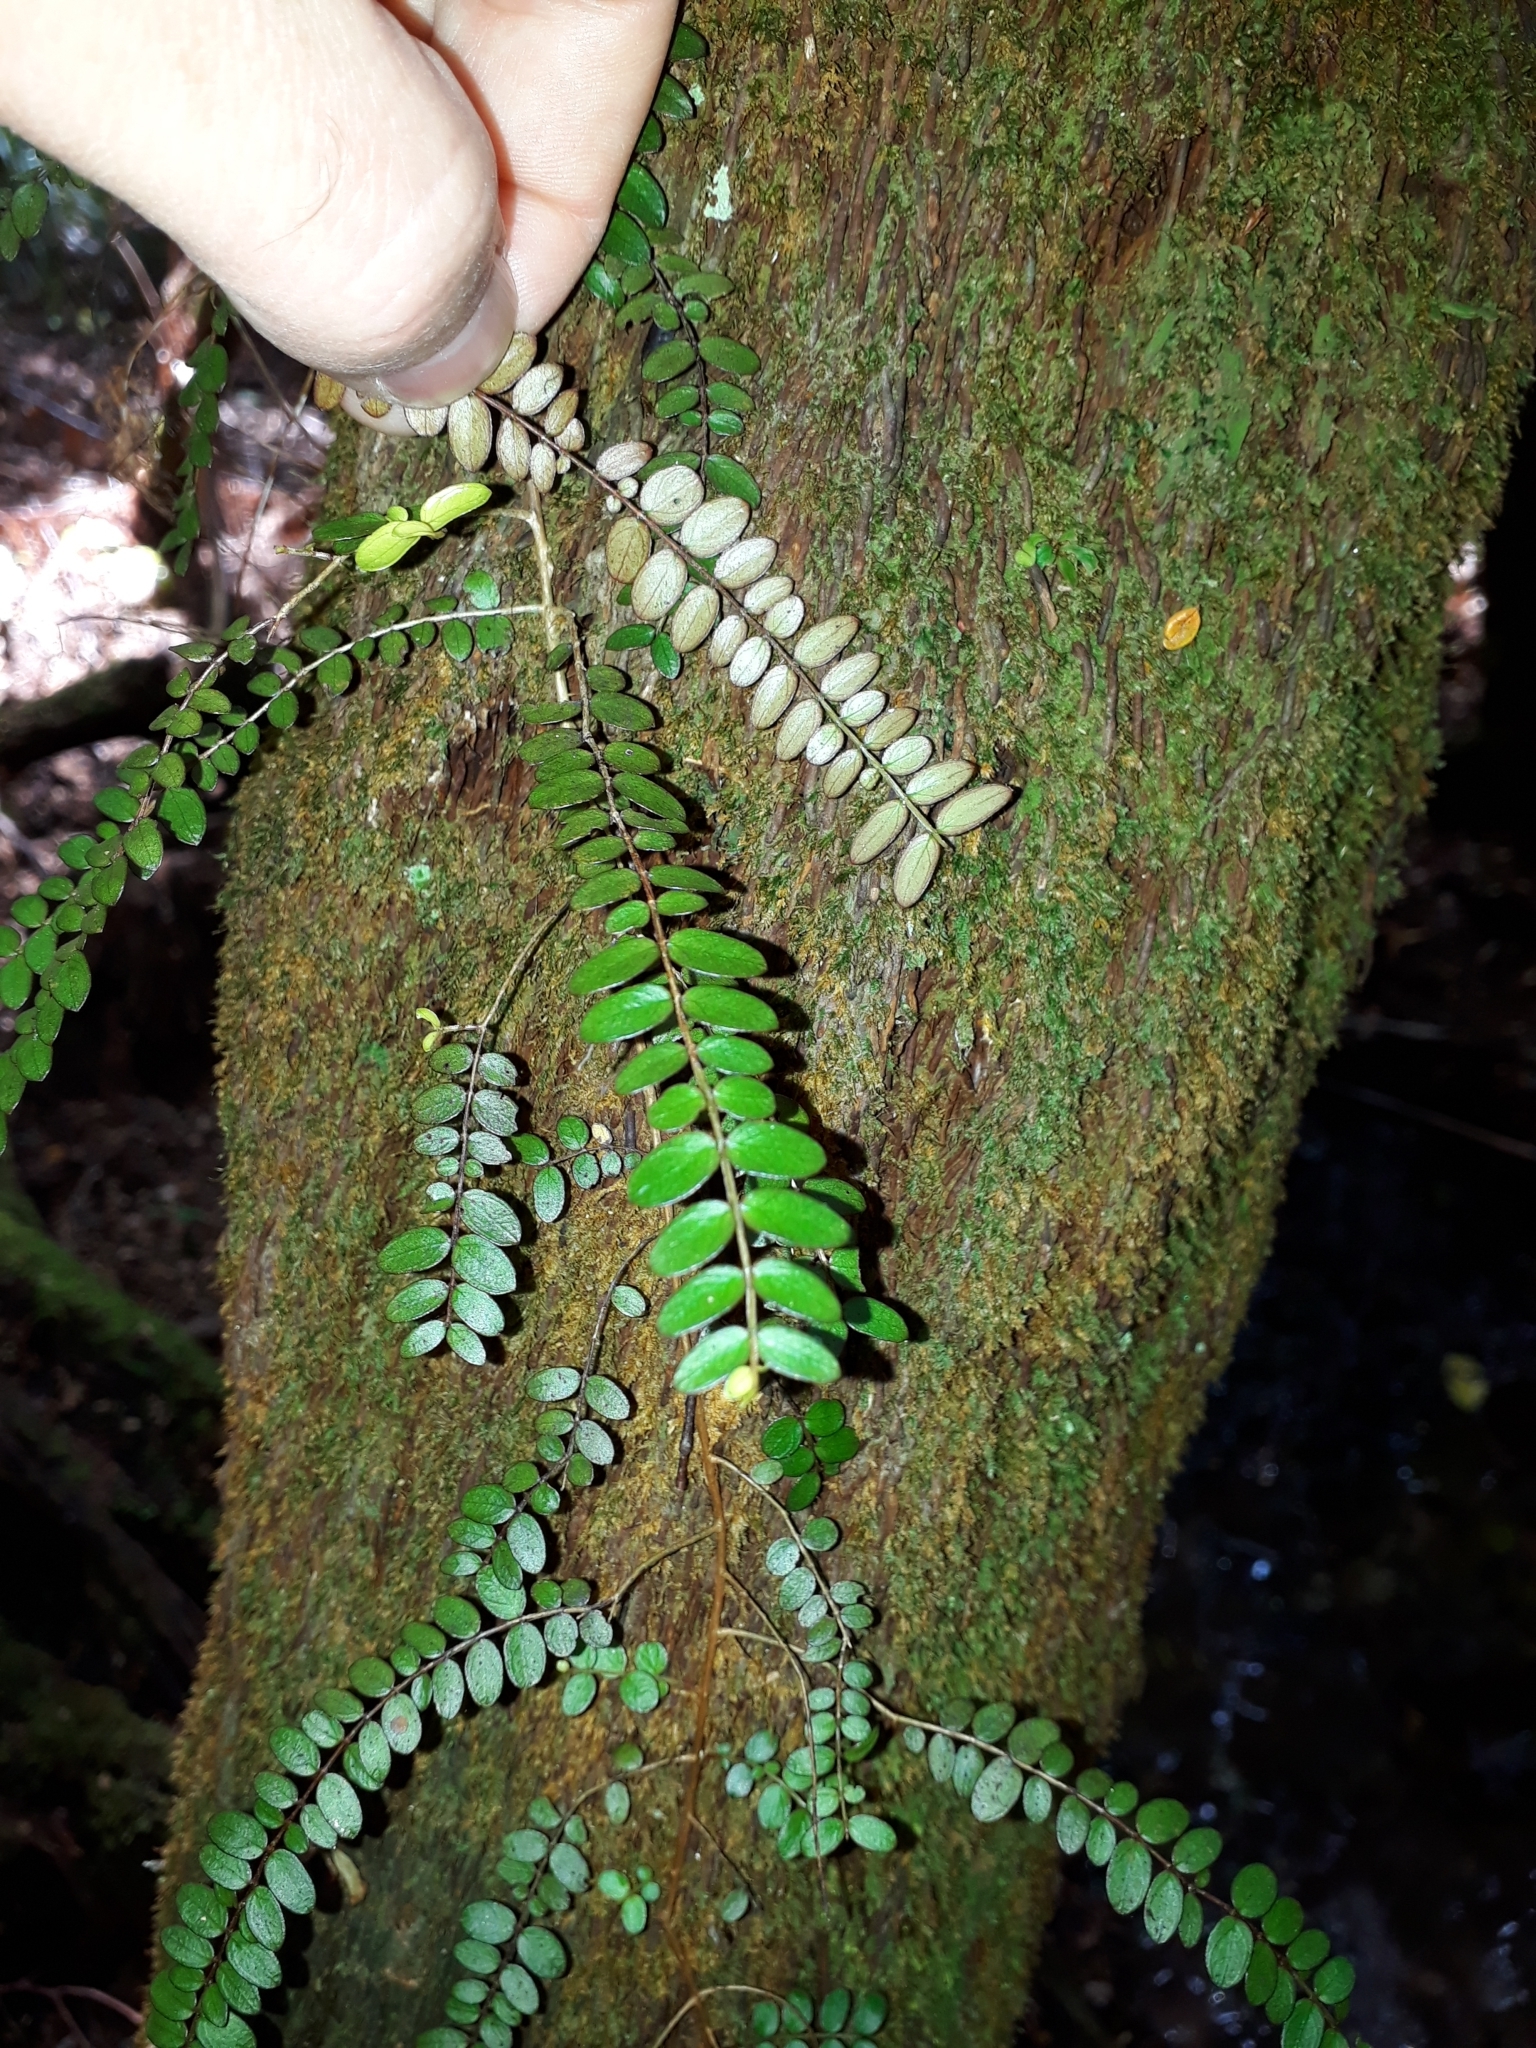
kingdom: Plantae
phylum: Tracheophyta
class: Magnoliopsida
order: Myrtales
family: Myrtaceae
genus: Metrosideros
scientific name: Metrosideros diffusa
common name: Small ratavine
